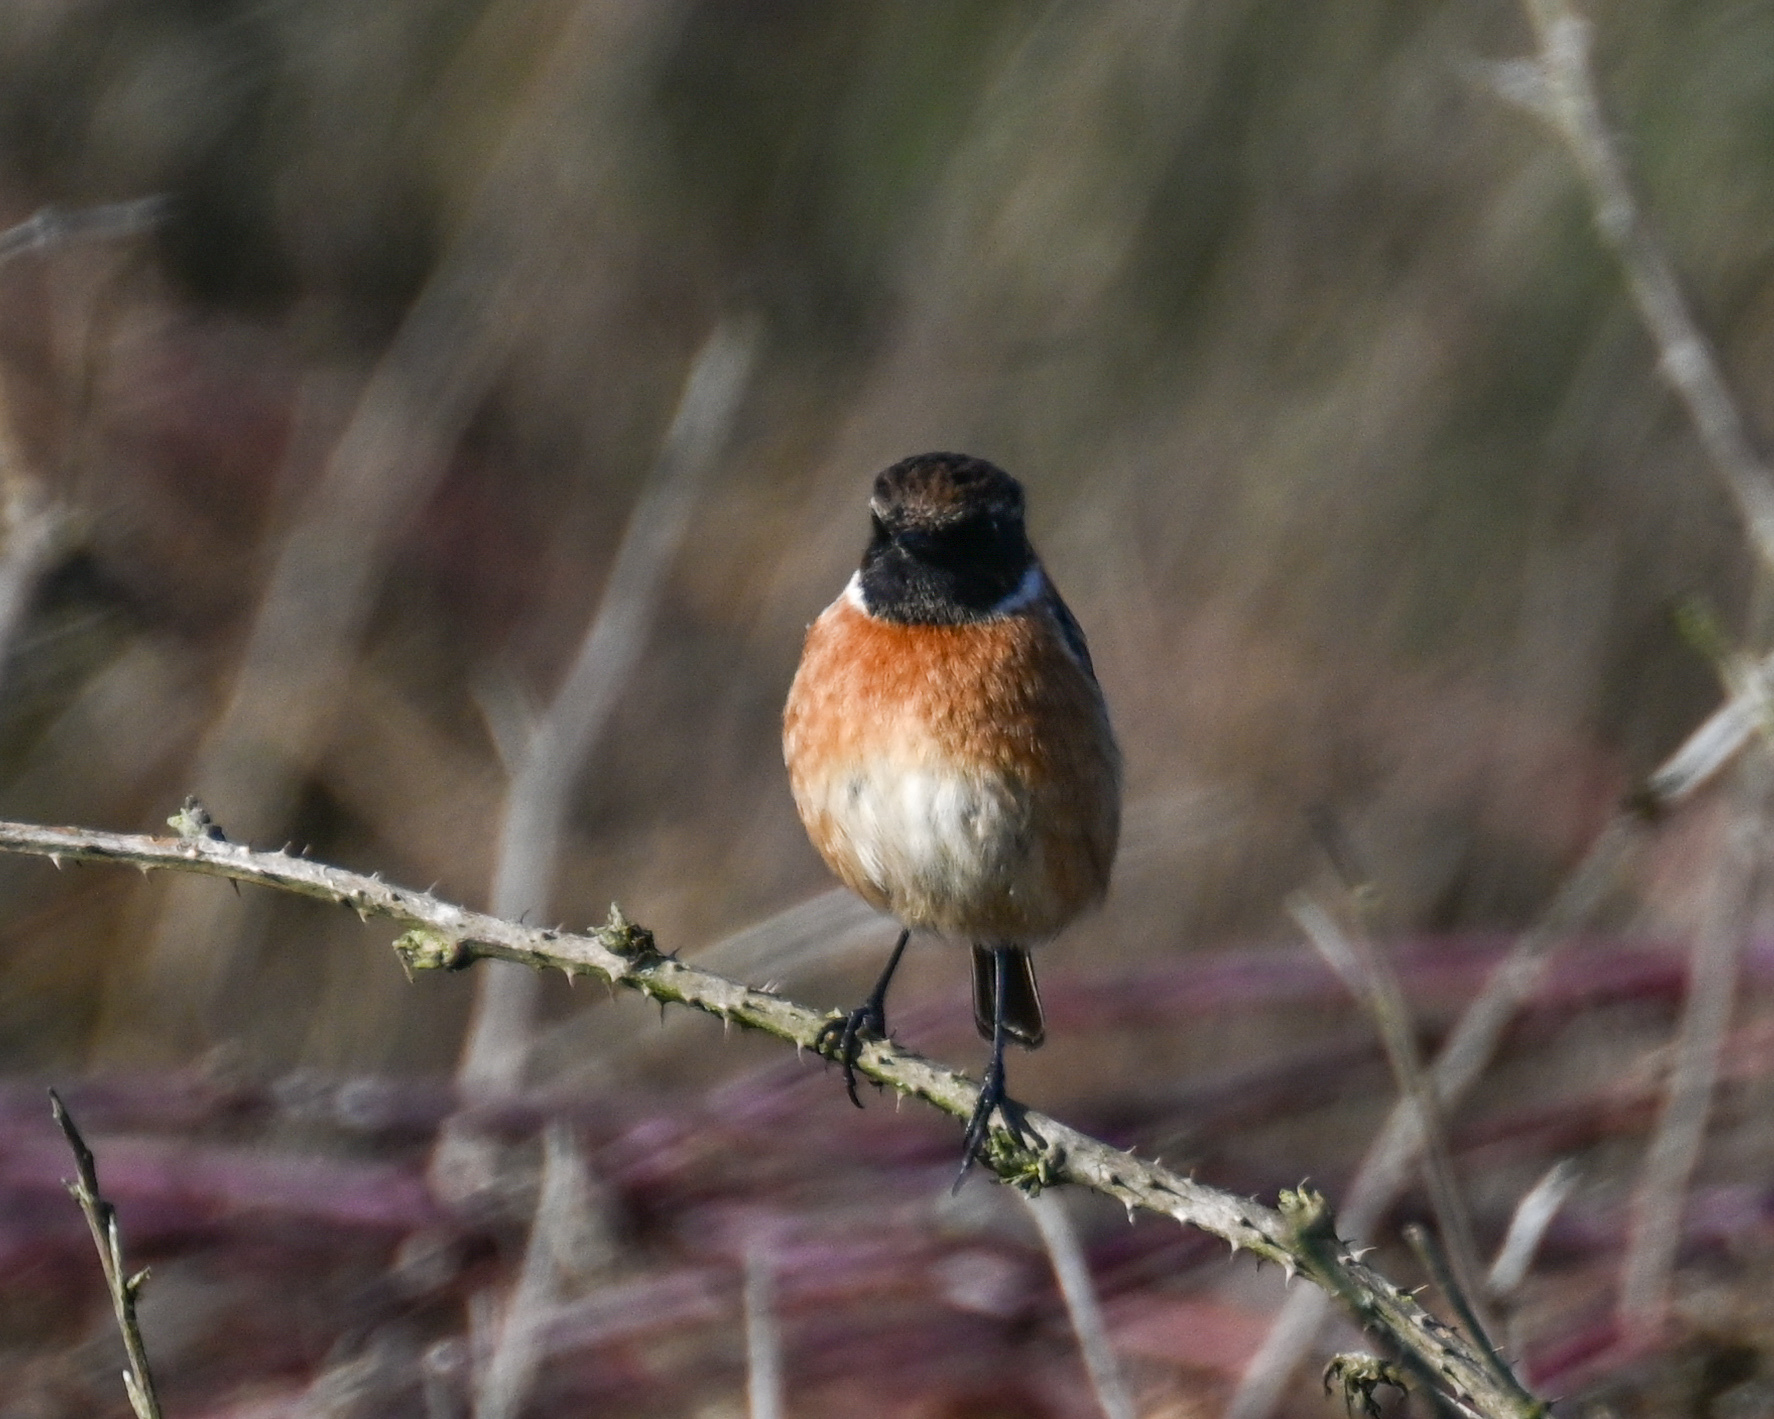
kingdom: Animalia
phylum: Chordata
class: Aves
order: Passeriformes
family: Muscicapidae
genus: Saxicola
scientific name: Saxicola rubicola
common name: European stonechat
